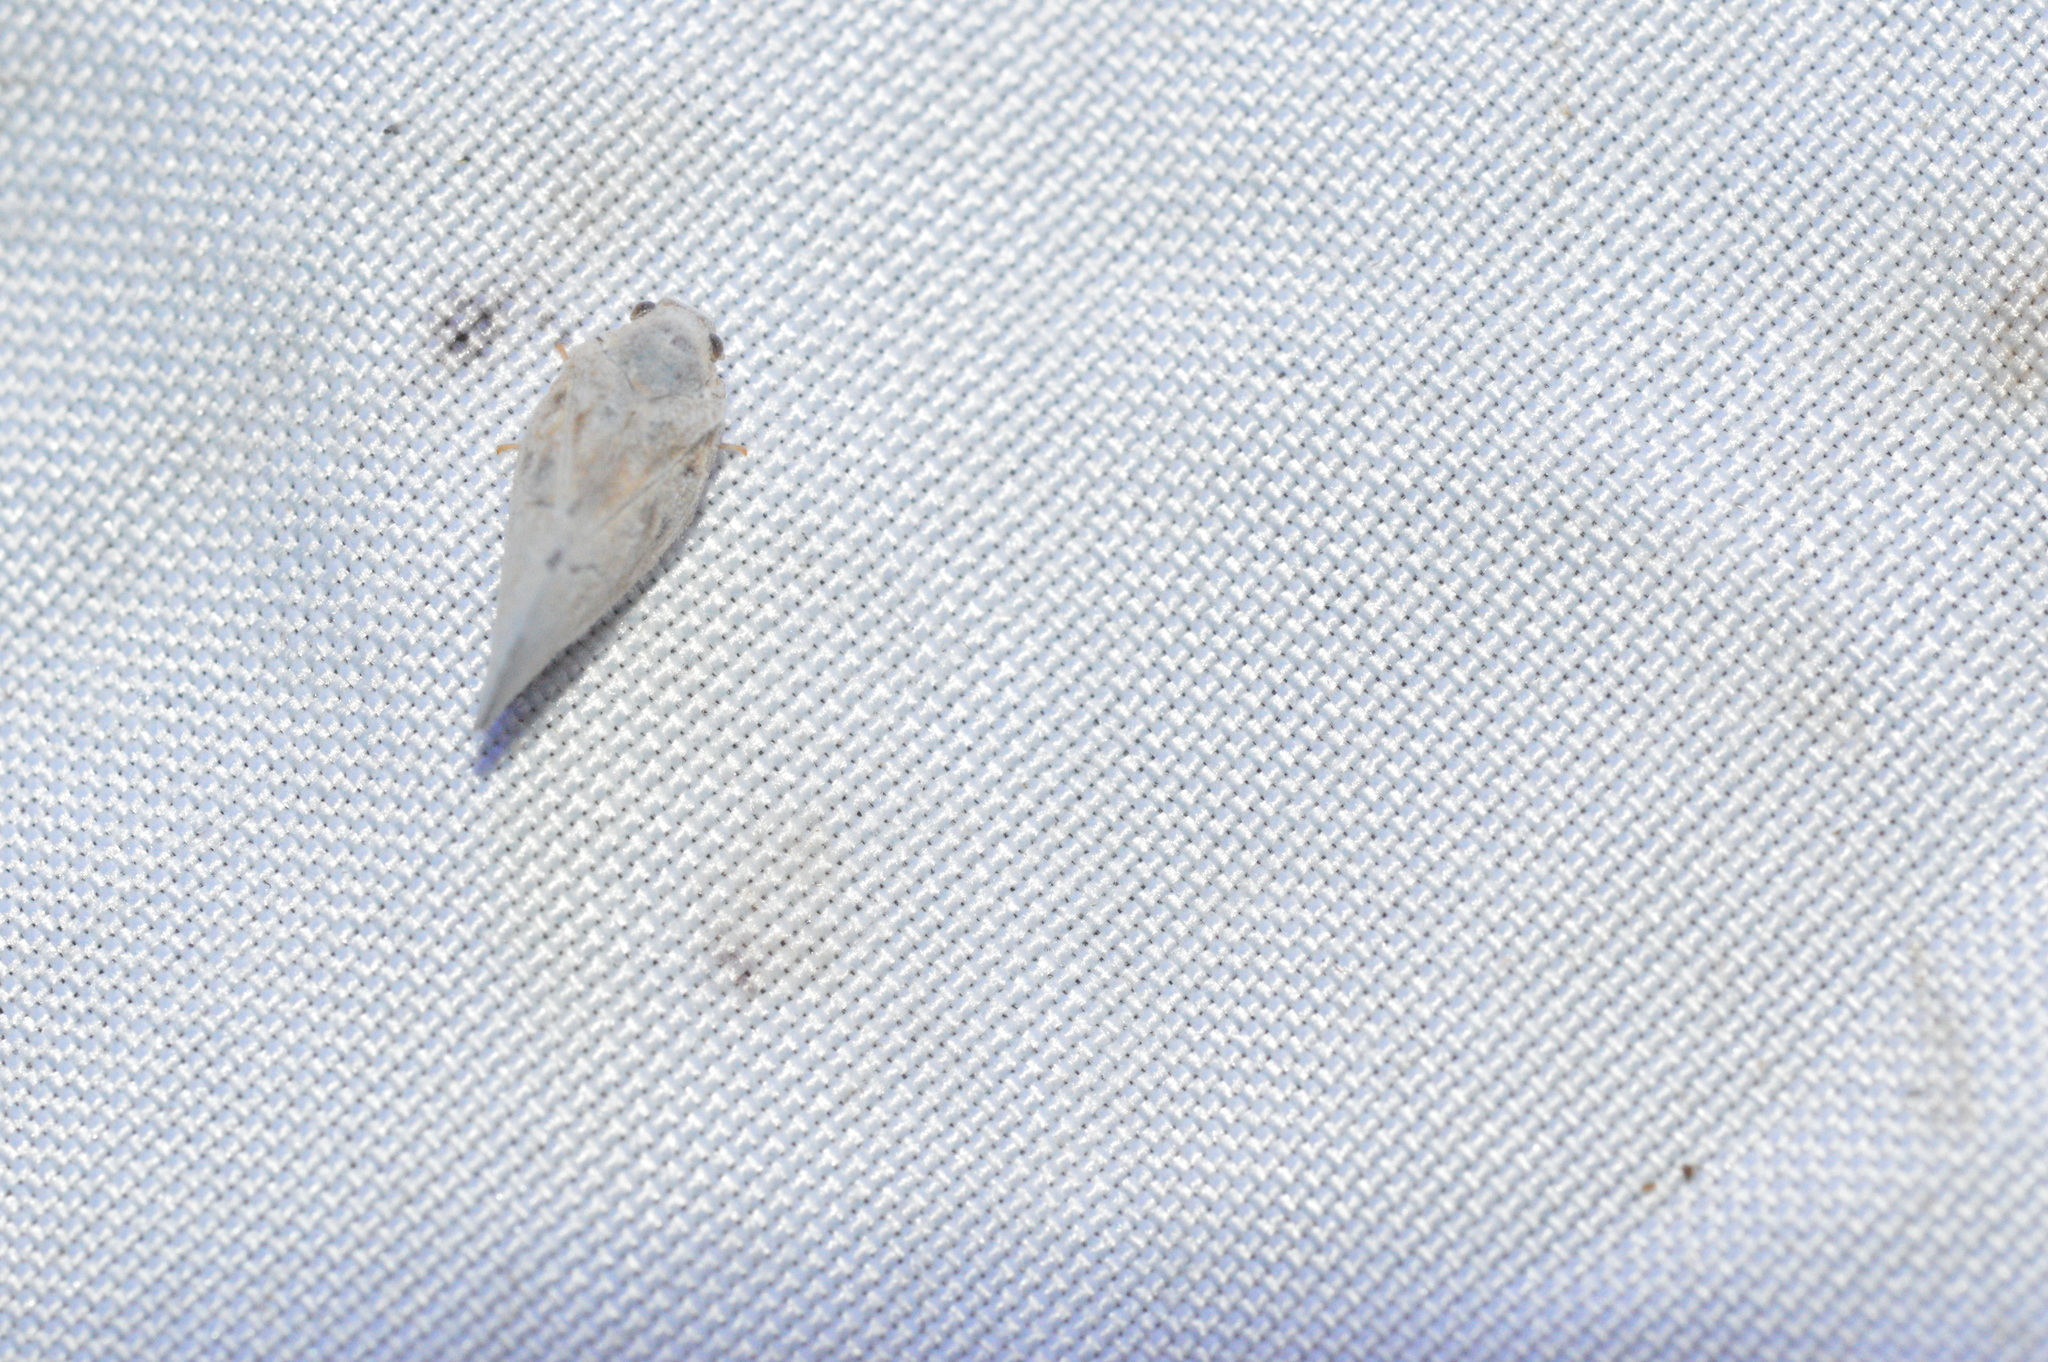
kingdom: Animalia
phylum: Arthropoda
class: Insecta
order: Hemiptera
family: Flatidae
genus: Metcalfa
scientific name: Metcalfa pruinosa
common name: Citrus flatid planthopper
